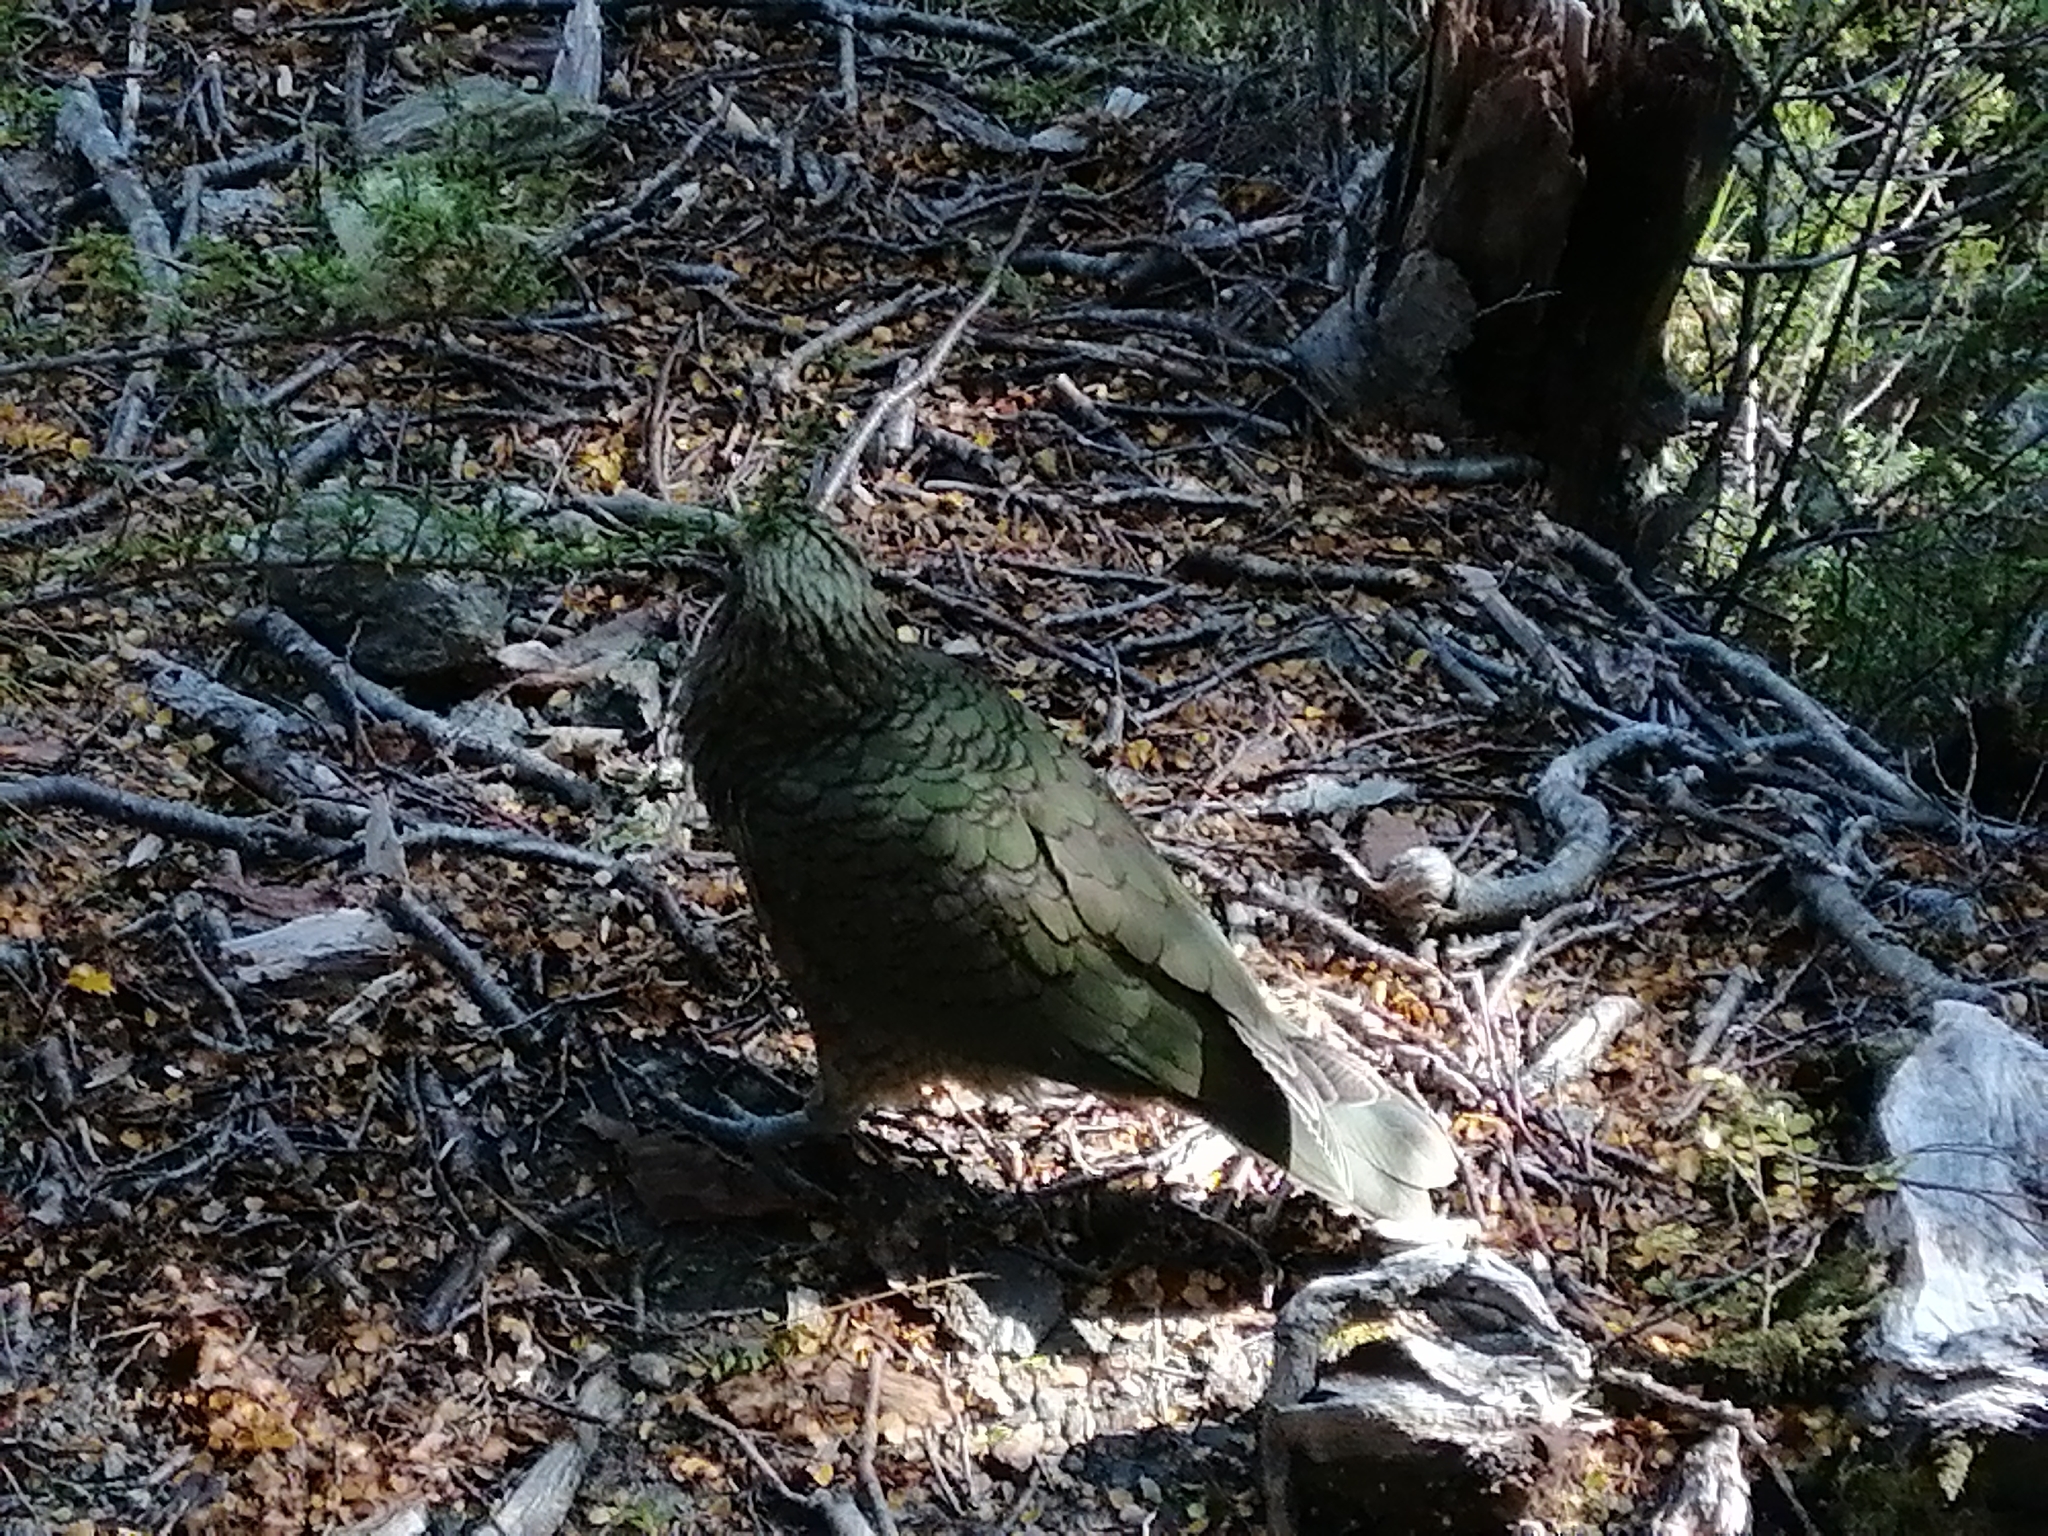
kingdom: Animalia
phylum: Chordata
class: Aves
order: Psittaciformes
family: Psittacidae
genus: Nestor
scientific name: Nestor notabilis
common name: Kea
